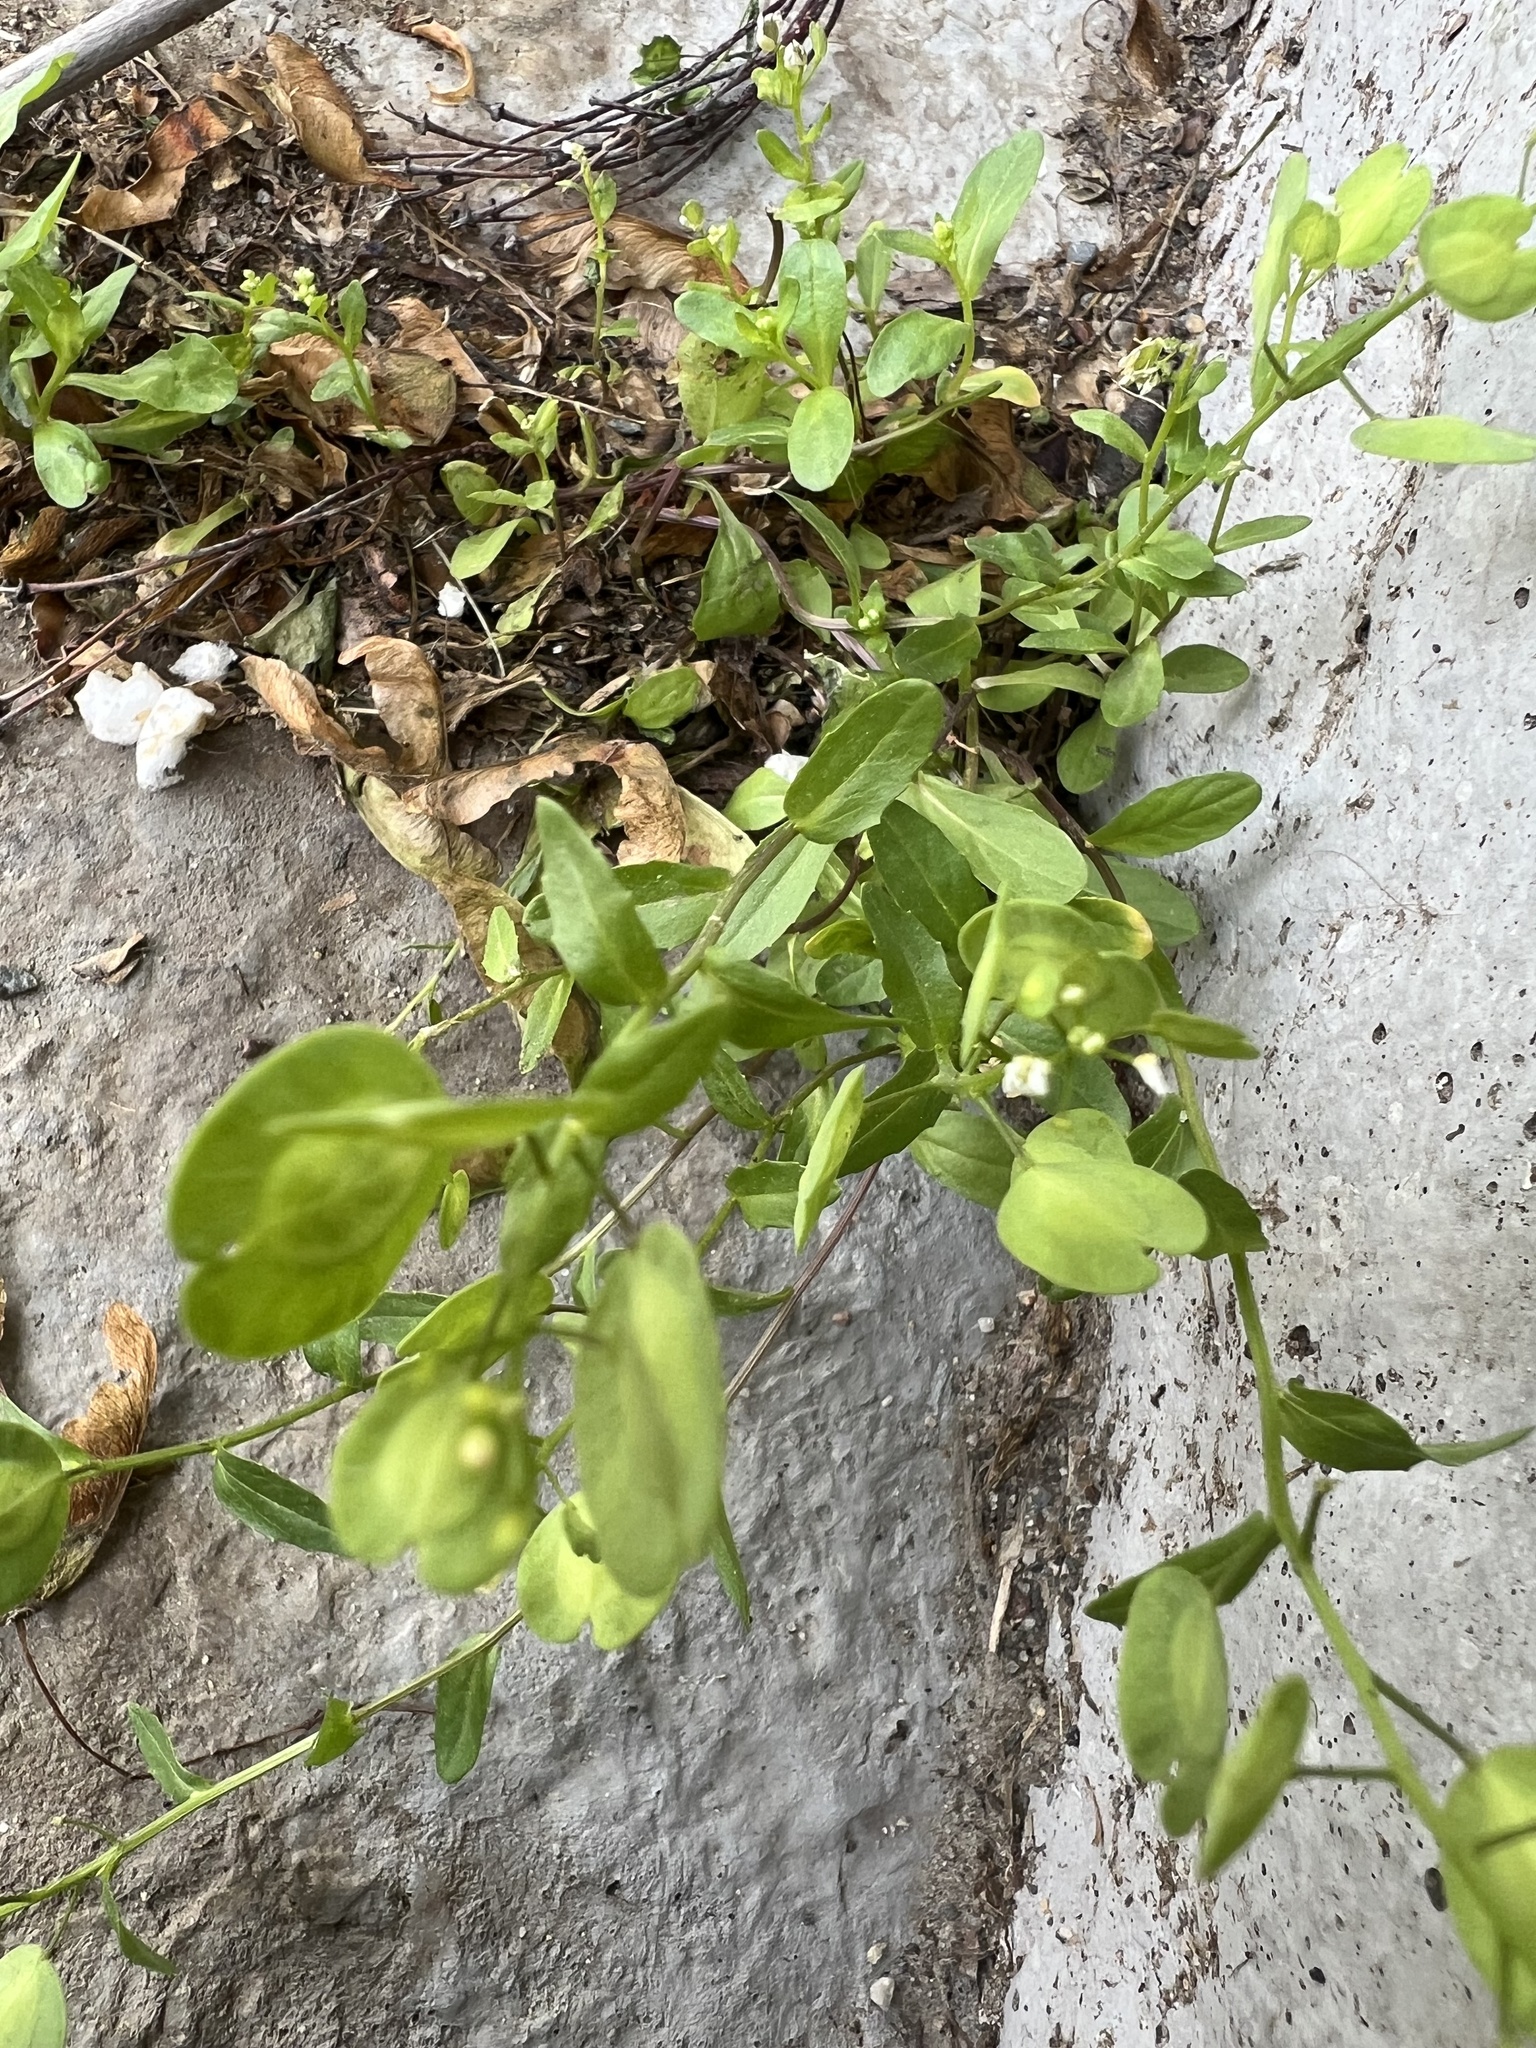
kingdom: Plantae
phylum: Tracheophyta
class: Magnoliopsida
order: Brassicales
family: Brassicaceae
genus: Thlaspi
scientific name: Thlaspi arvense
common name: Field pennycress
